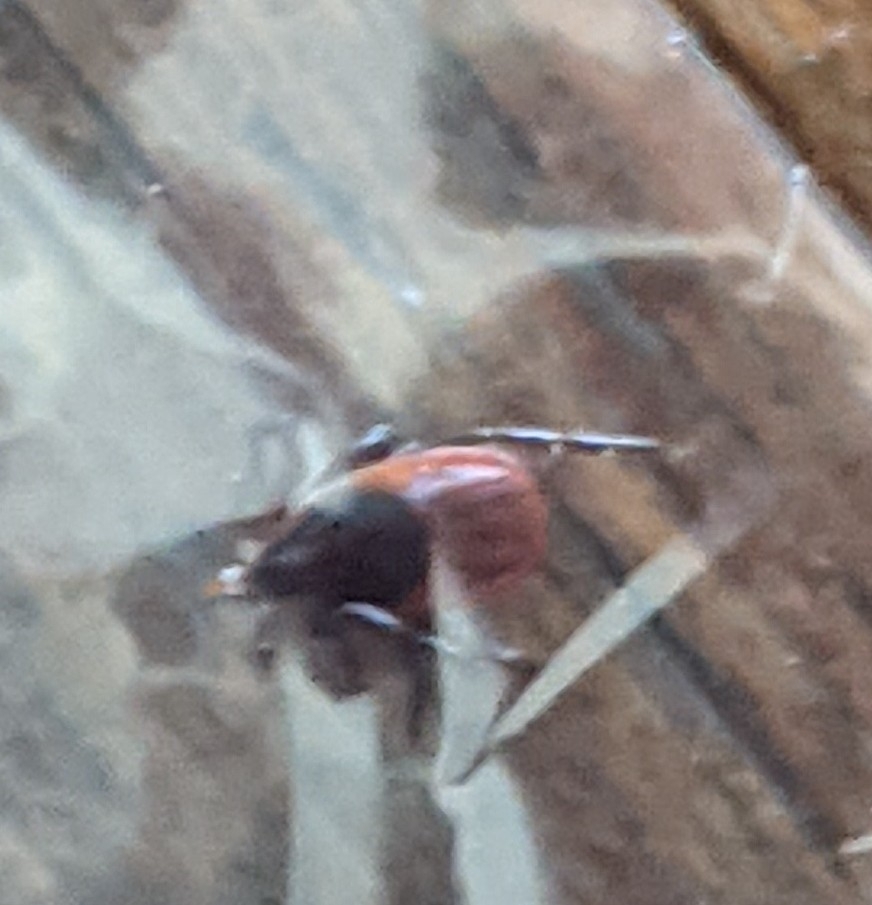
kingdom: Animalia
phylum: Arthropoda
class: Arachnida
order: Ixodida
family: Ixodidae
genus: Ixodes
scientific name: Ixodes scapularis
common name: Black legged tick
